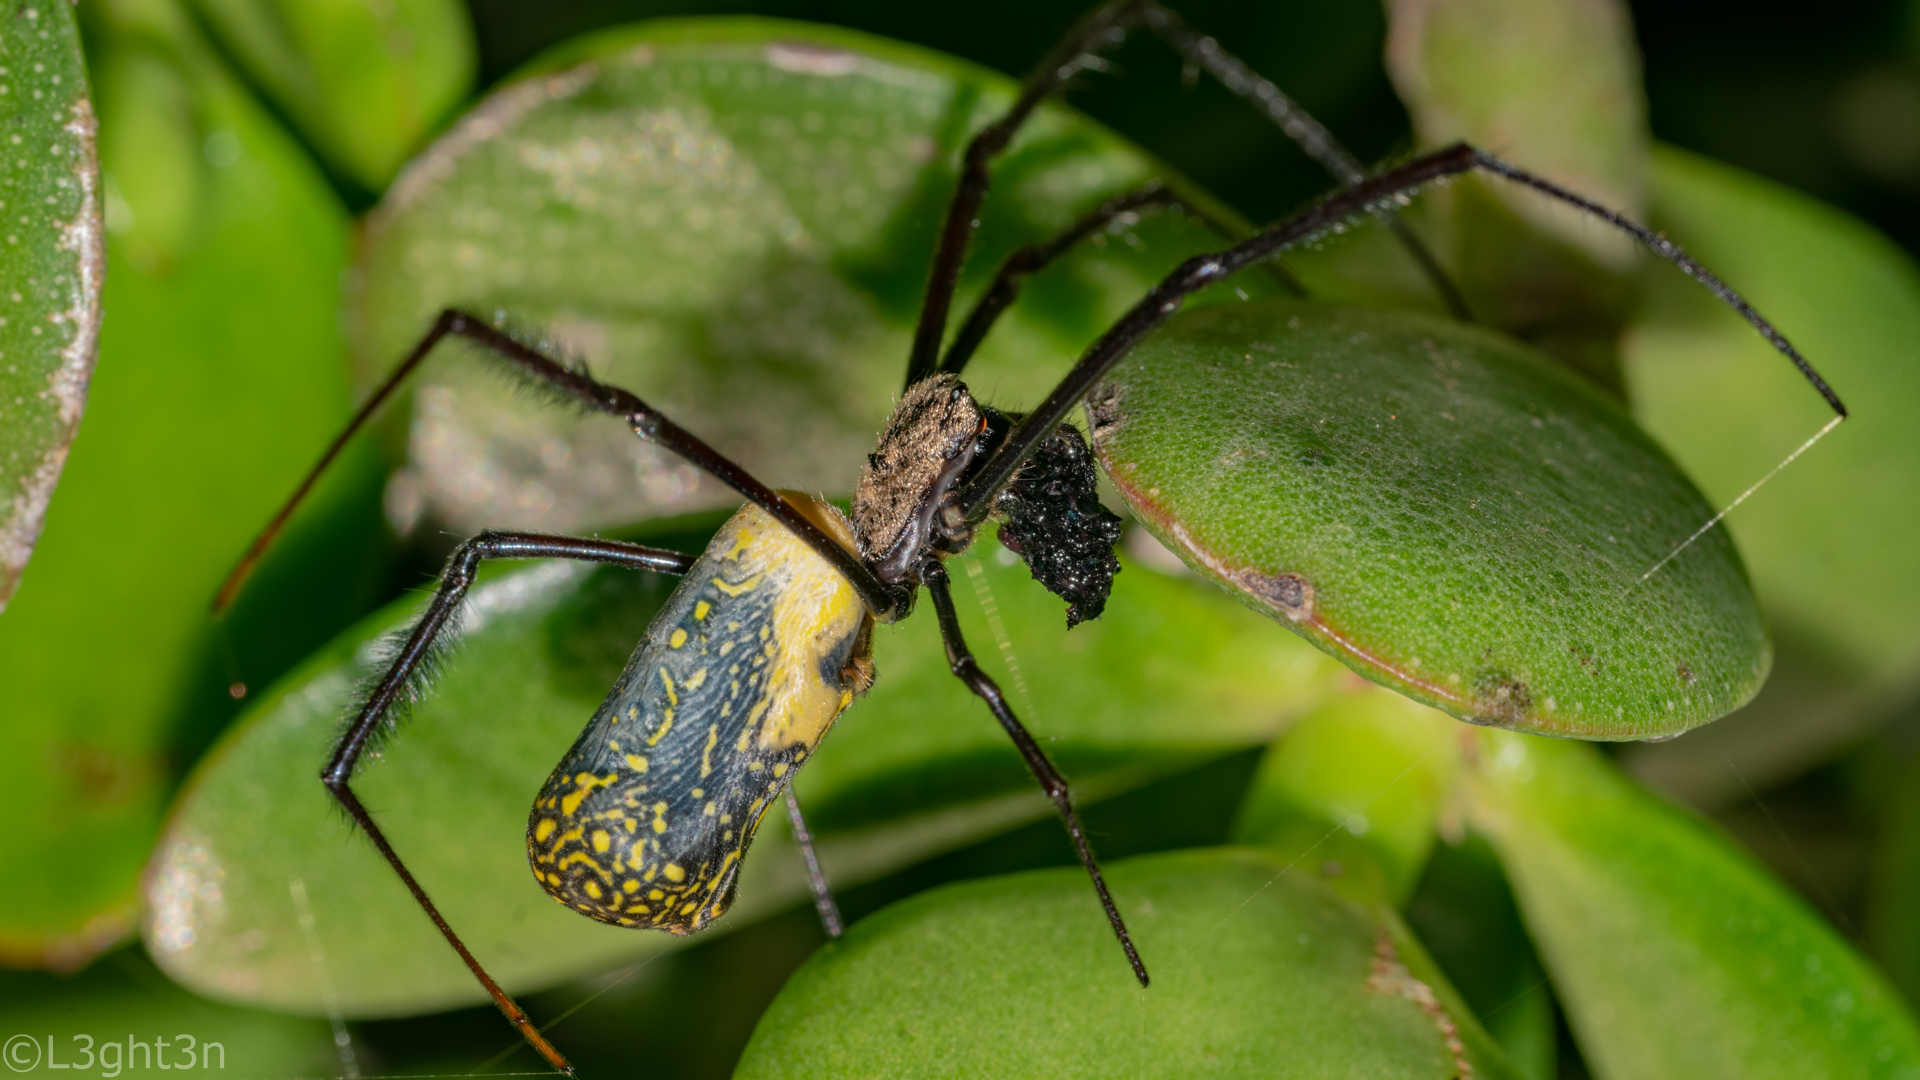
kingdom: Animalia
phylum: Arthropoda
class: Arachnida
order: Araneae
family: Araneidae
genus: Trichonephila
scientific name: Trichonephila fenestrata
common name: Hairy golden orb weaver
